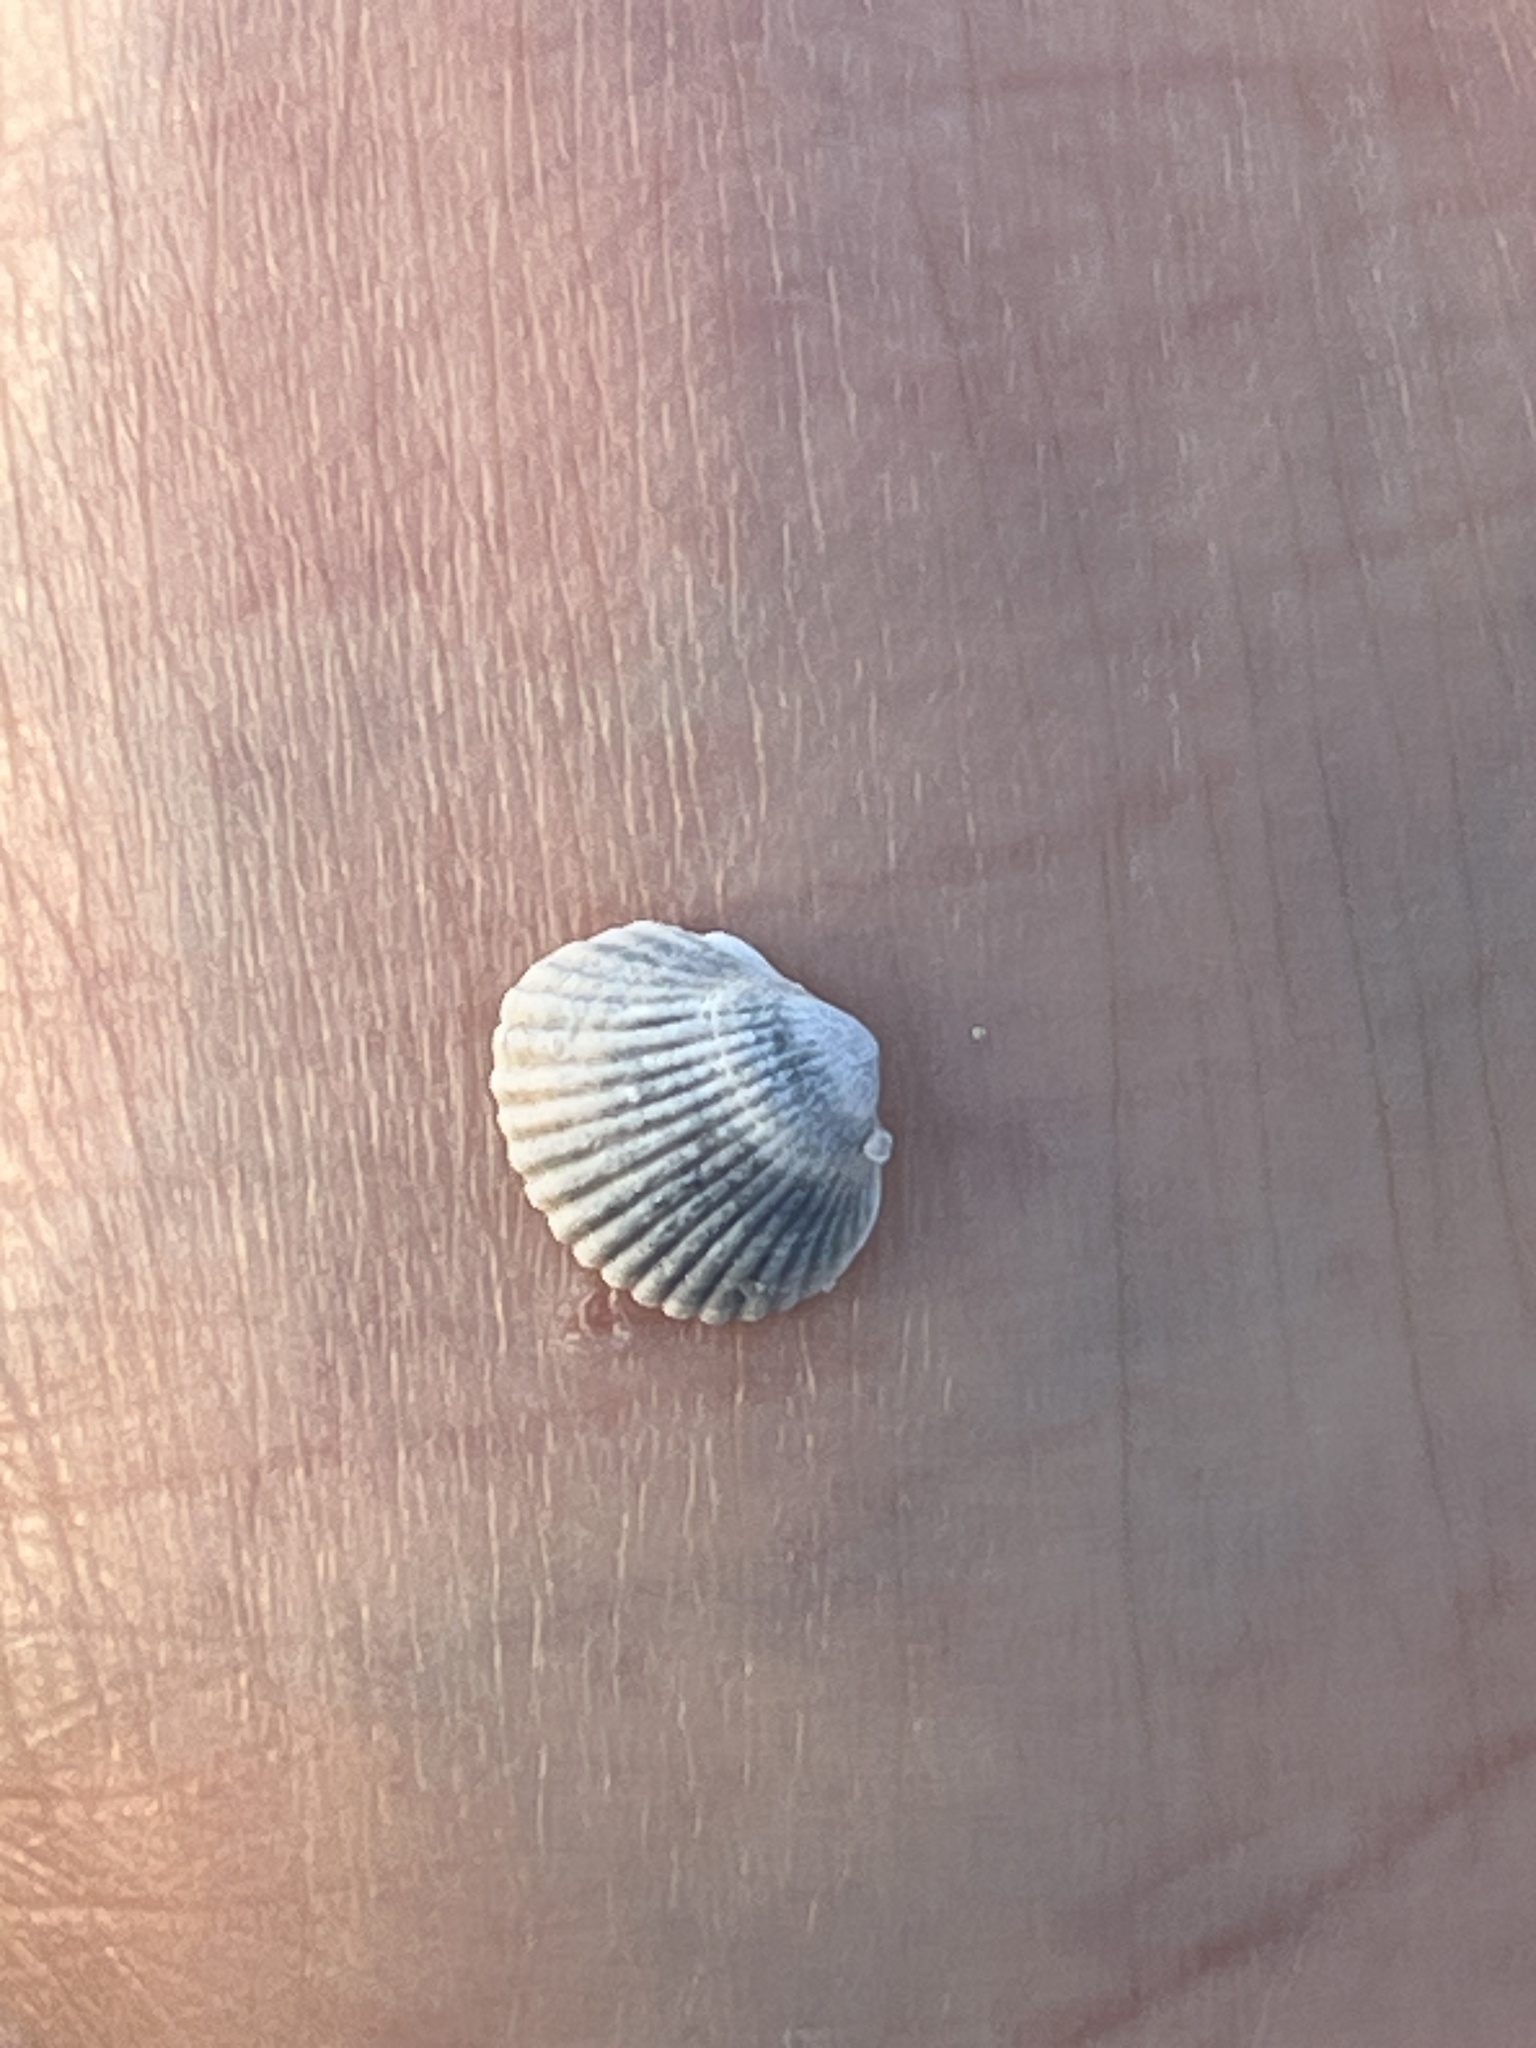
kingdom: Animalia
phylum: Mollusca
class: Bivalvia
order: Cardiida
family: Cardiidae
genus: Cerastoderma
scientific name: Cerastoderma glaucum
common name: Lagoon cockle
